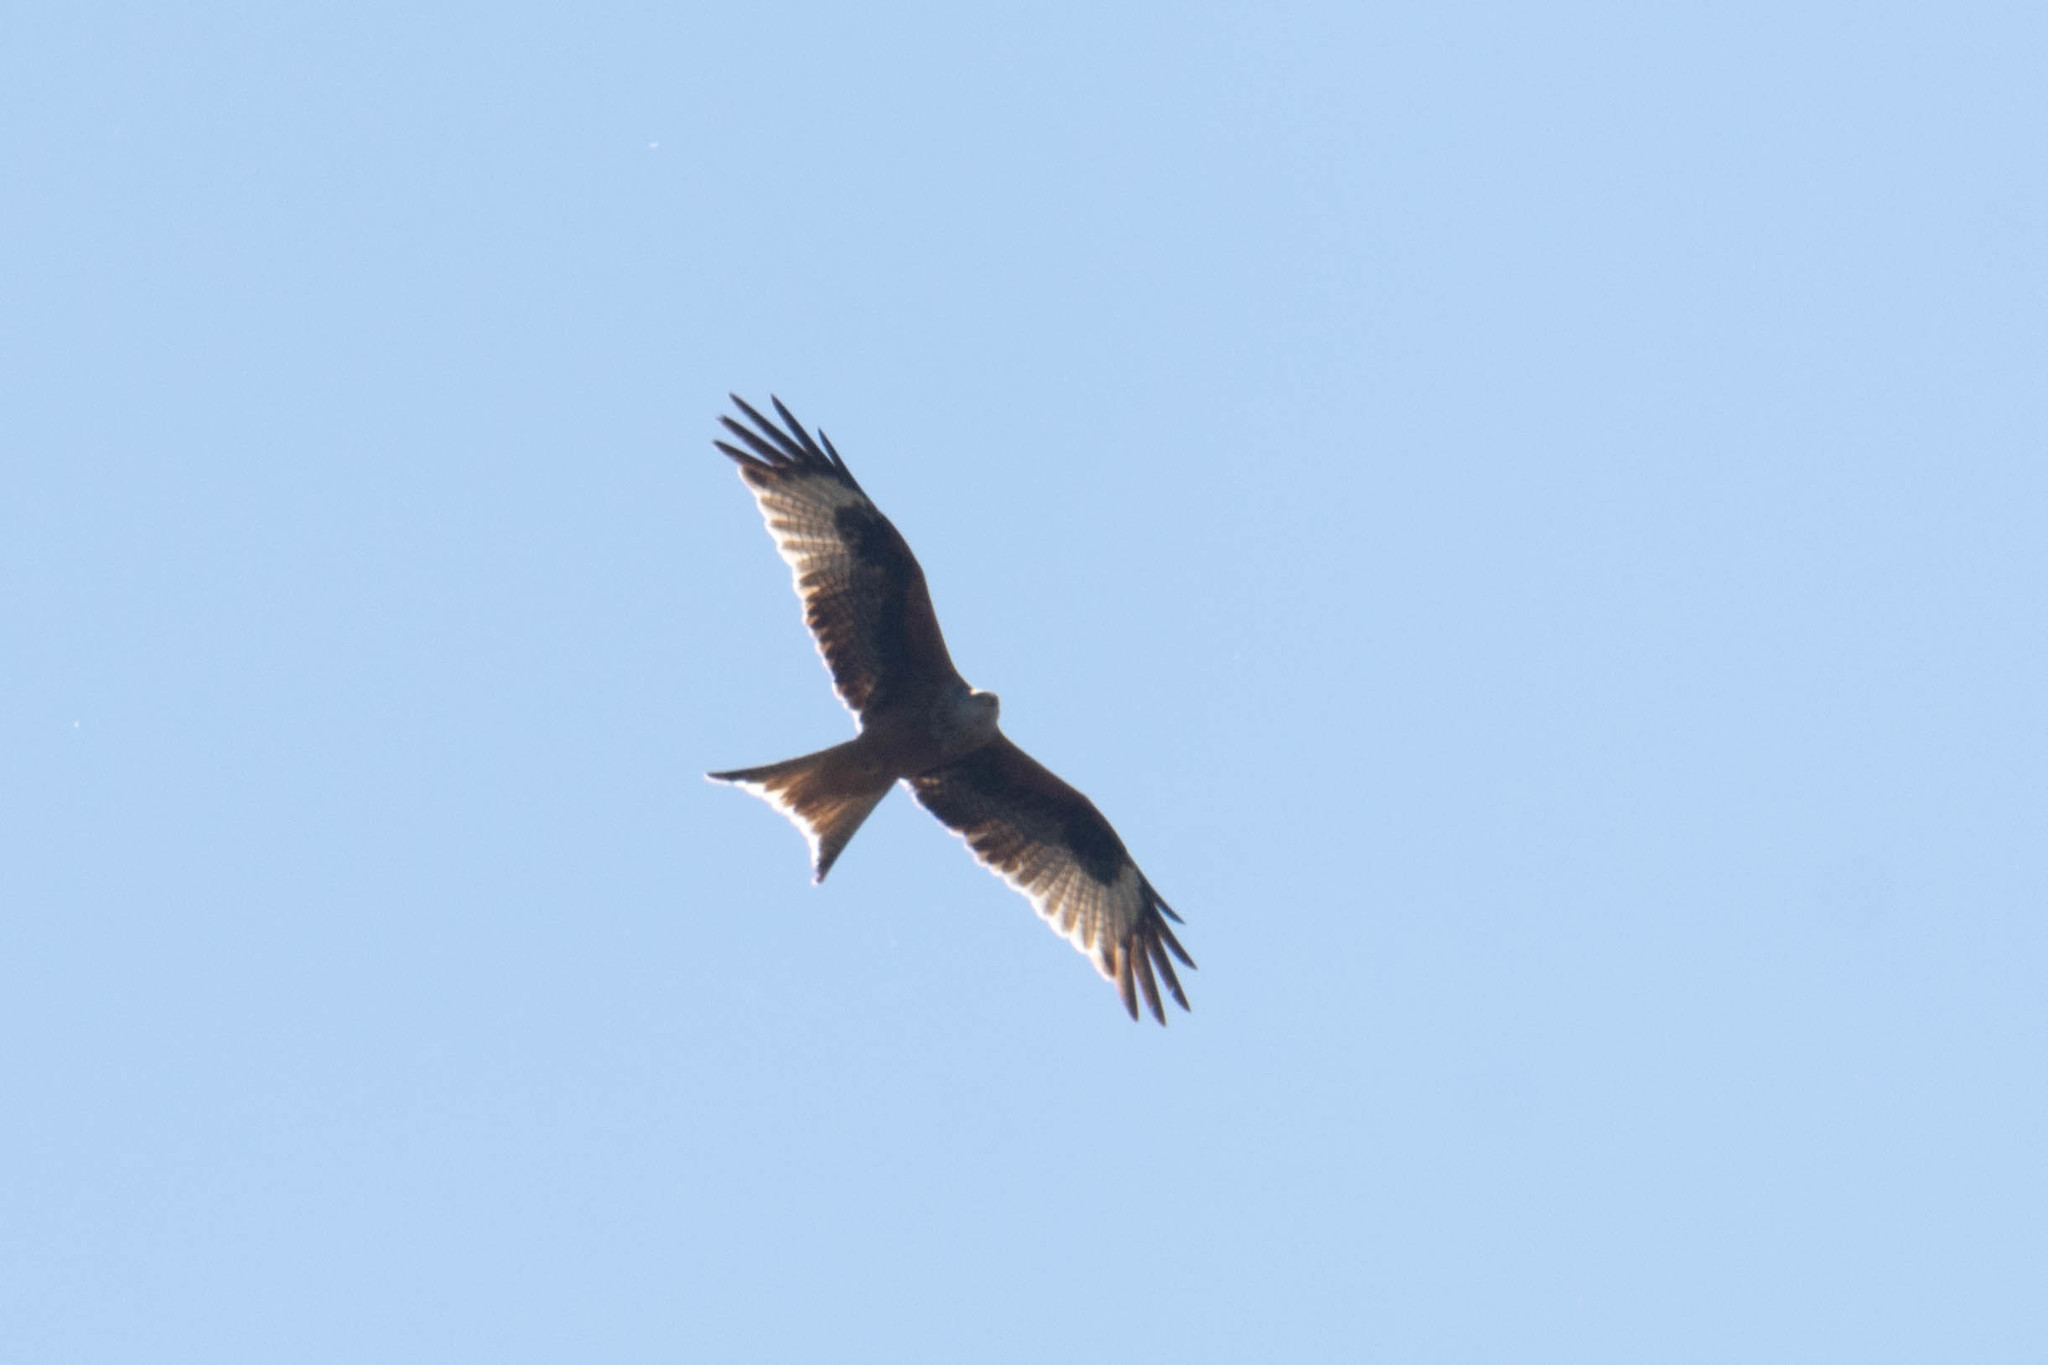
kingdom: Animalia
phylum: Chordata
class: Aves
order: Accipitriformes
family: Accipitridae
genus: Milvus
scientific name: Milvus milvus
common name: Red kite
